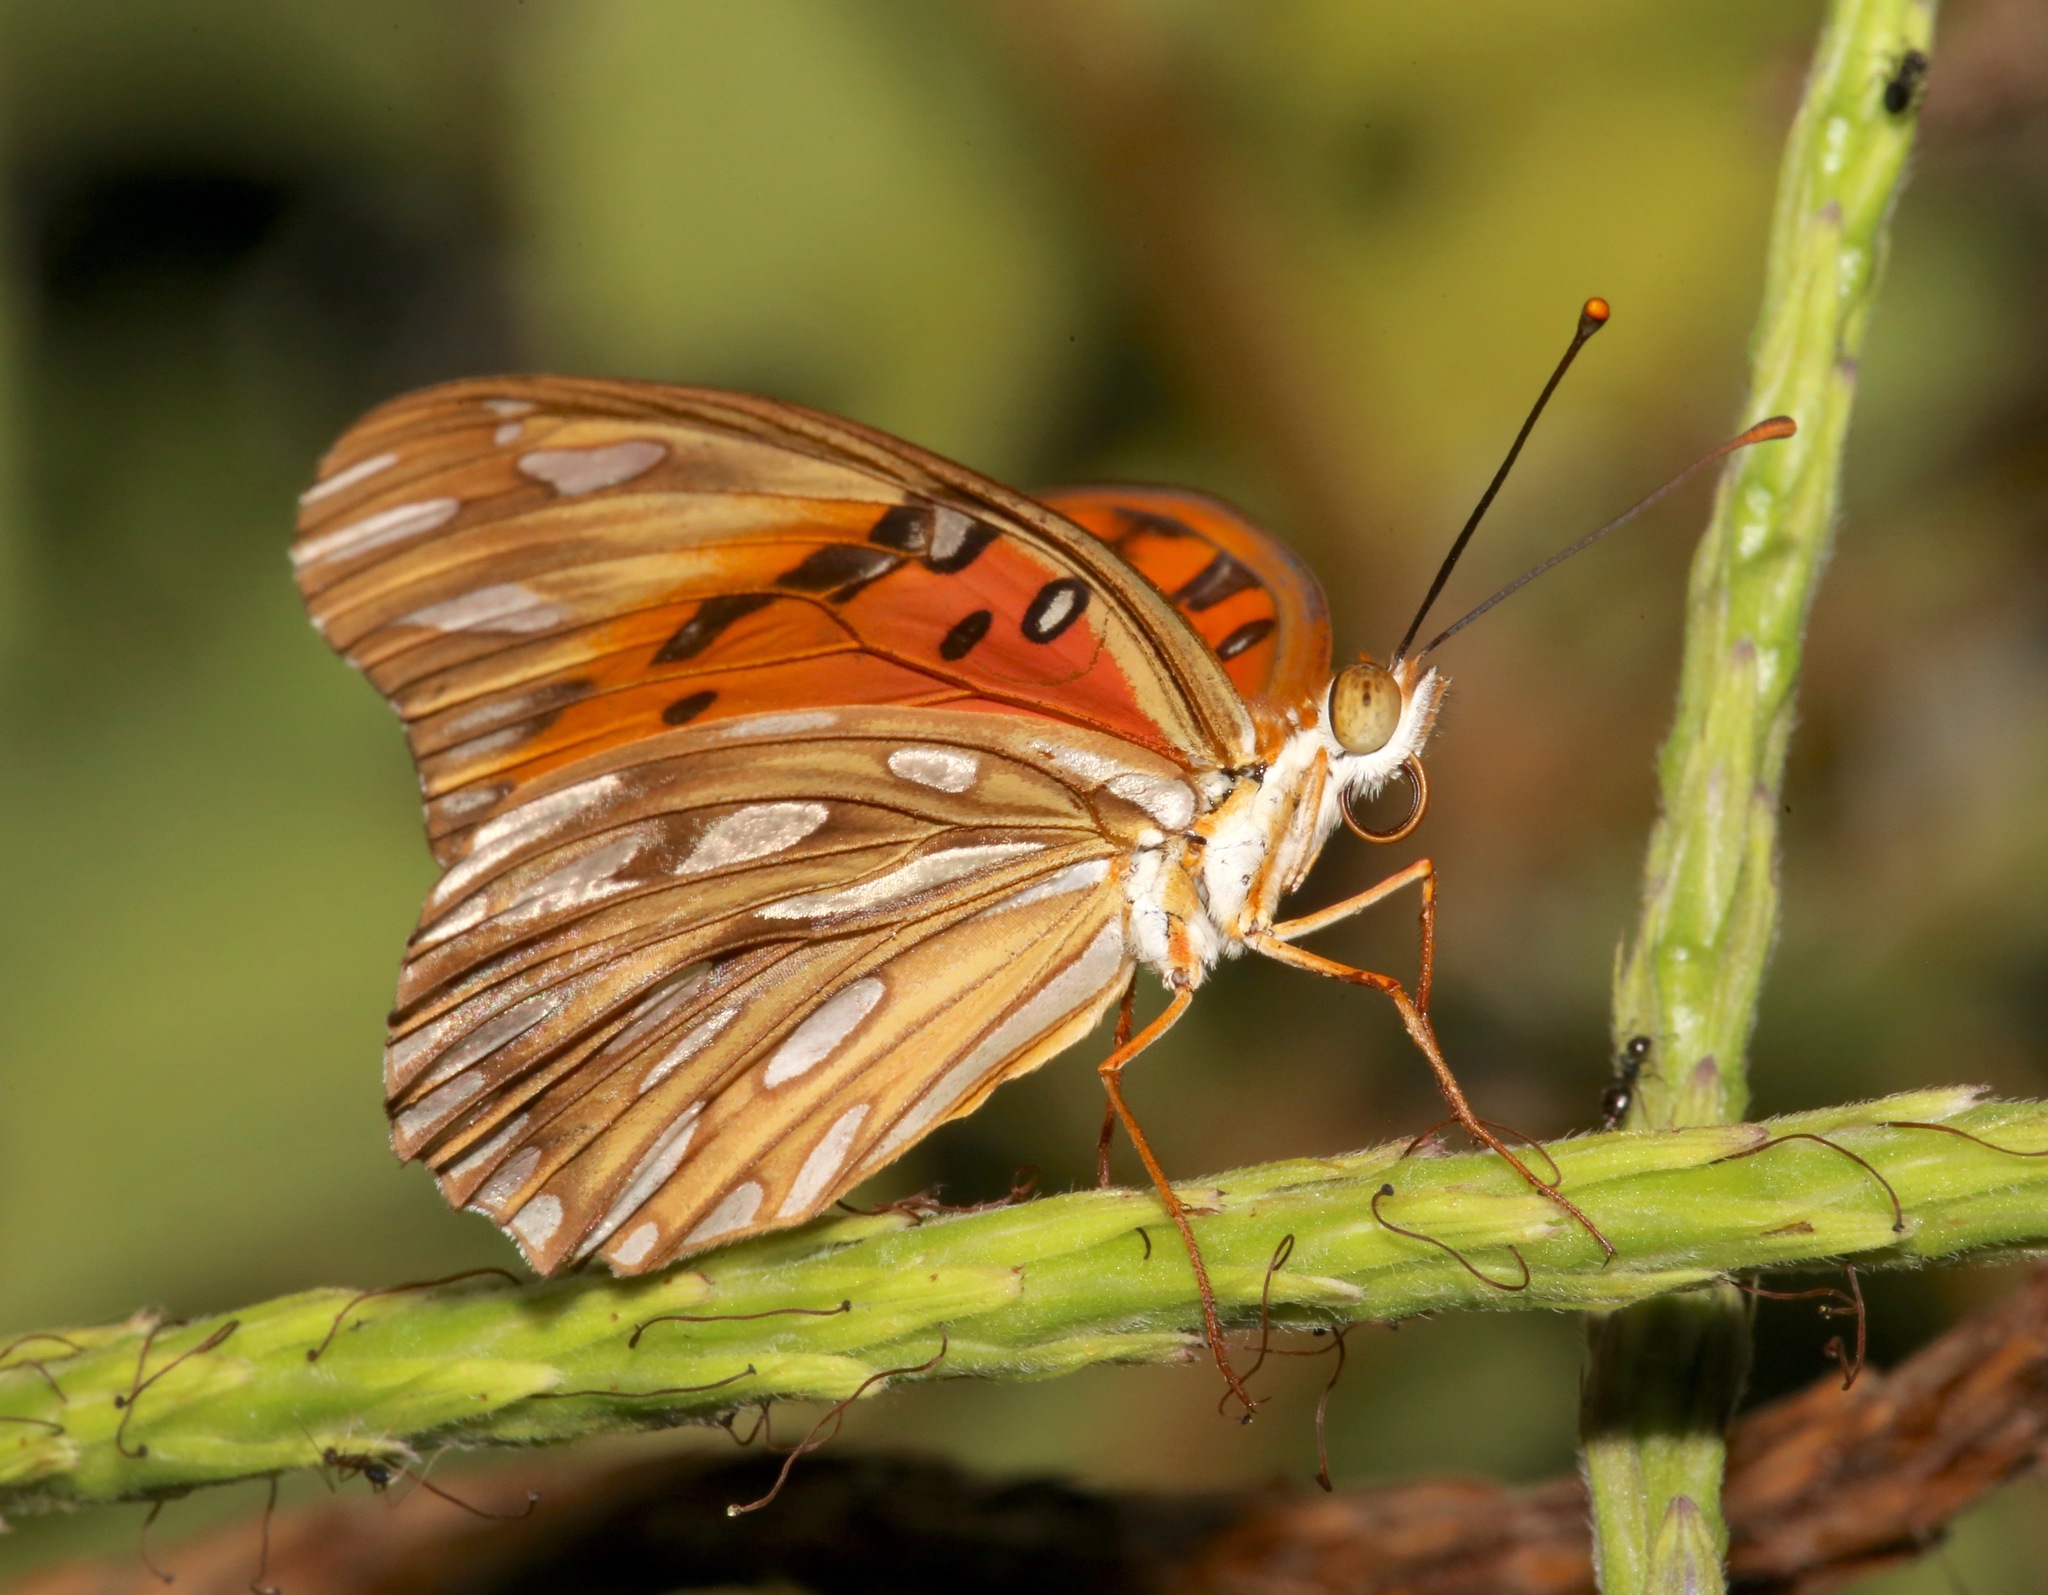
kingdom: Animalia
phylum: Arthropoda
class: Insecta
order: Lepidoptera
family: Nymphalidae
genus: Dione
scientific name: Dione vanillae
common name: Gulf fritillary
